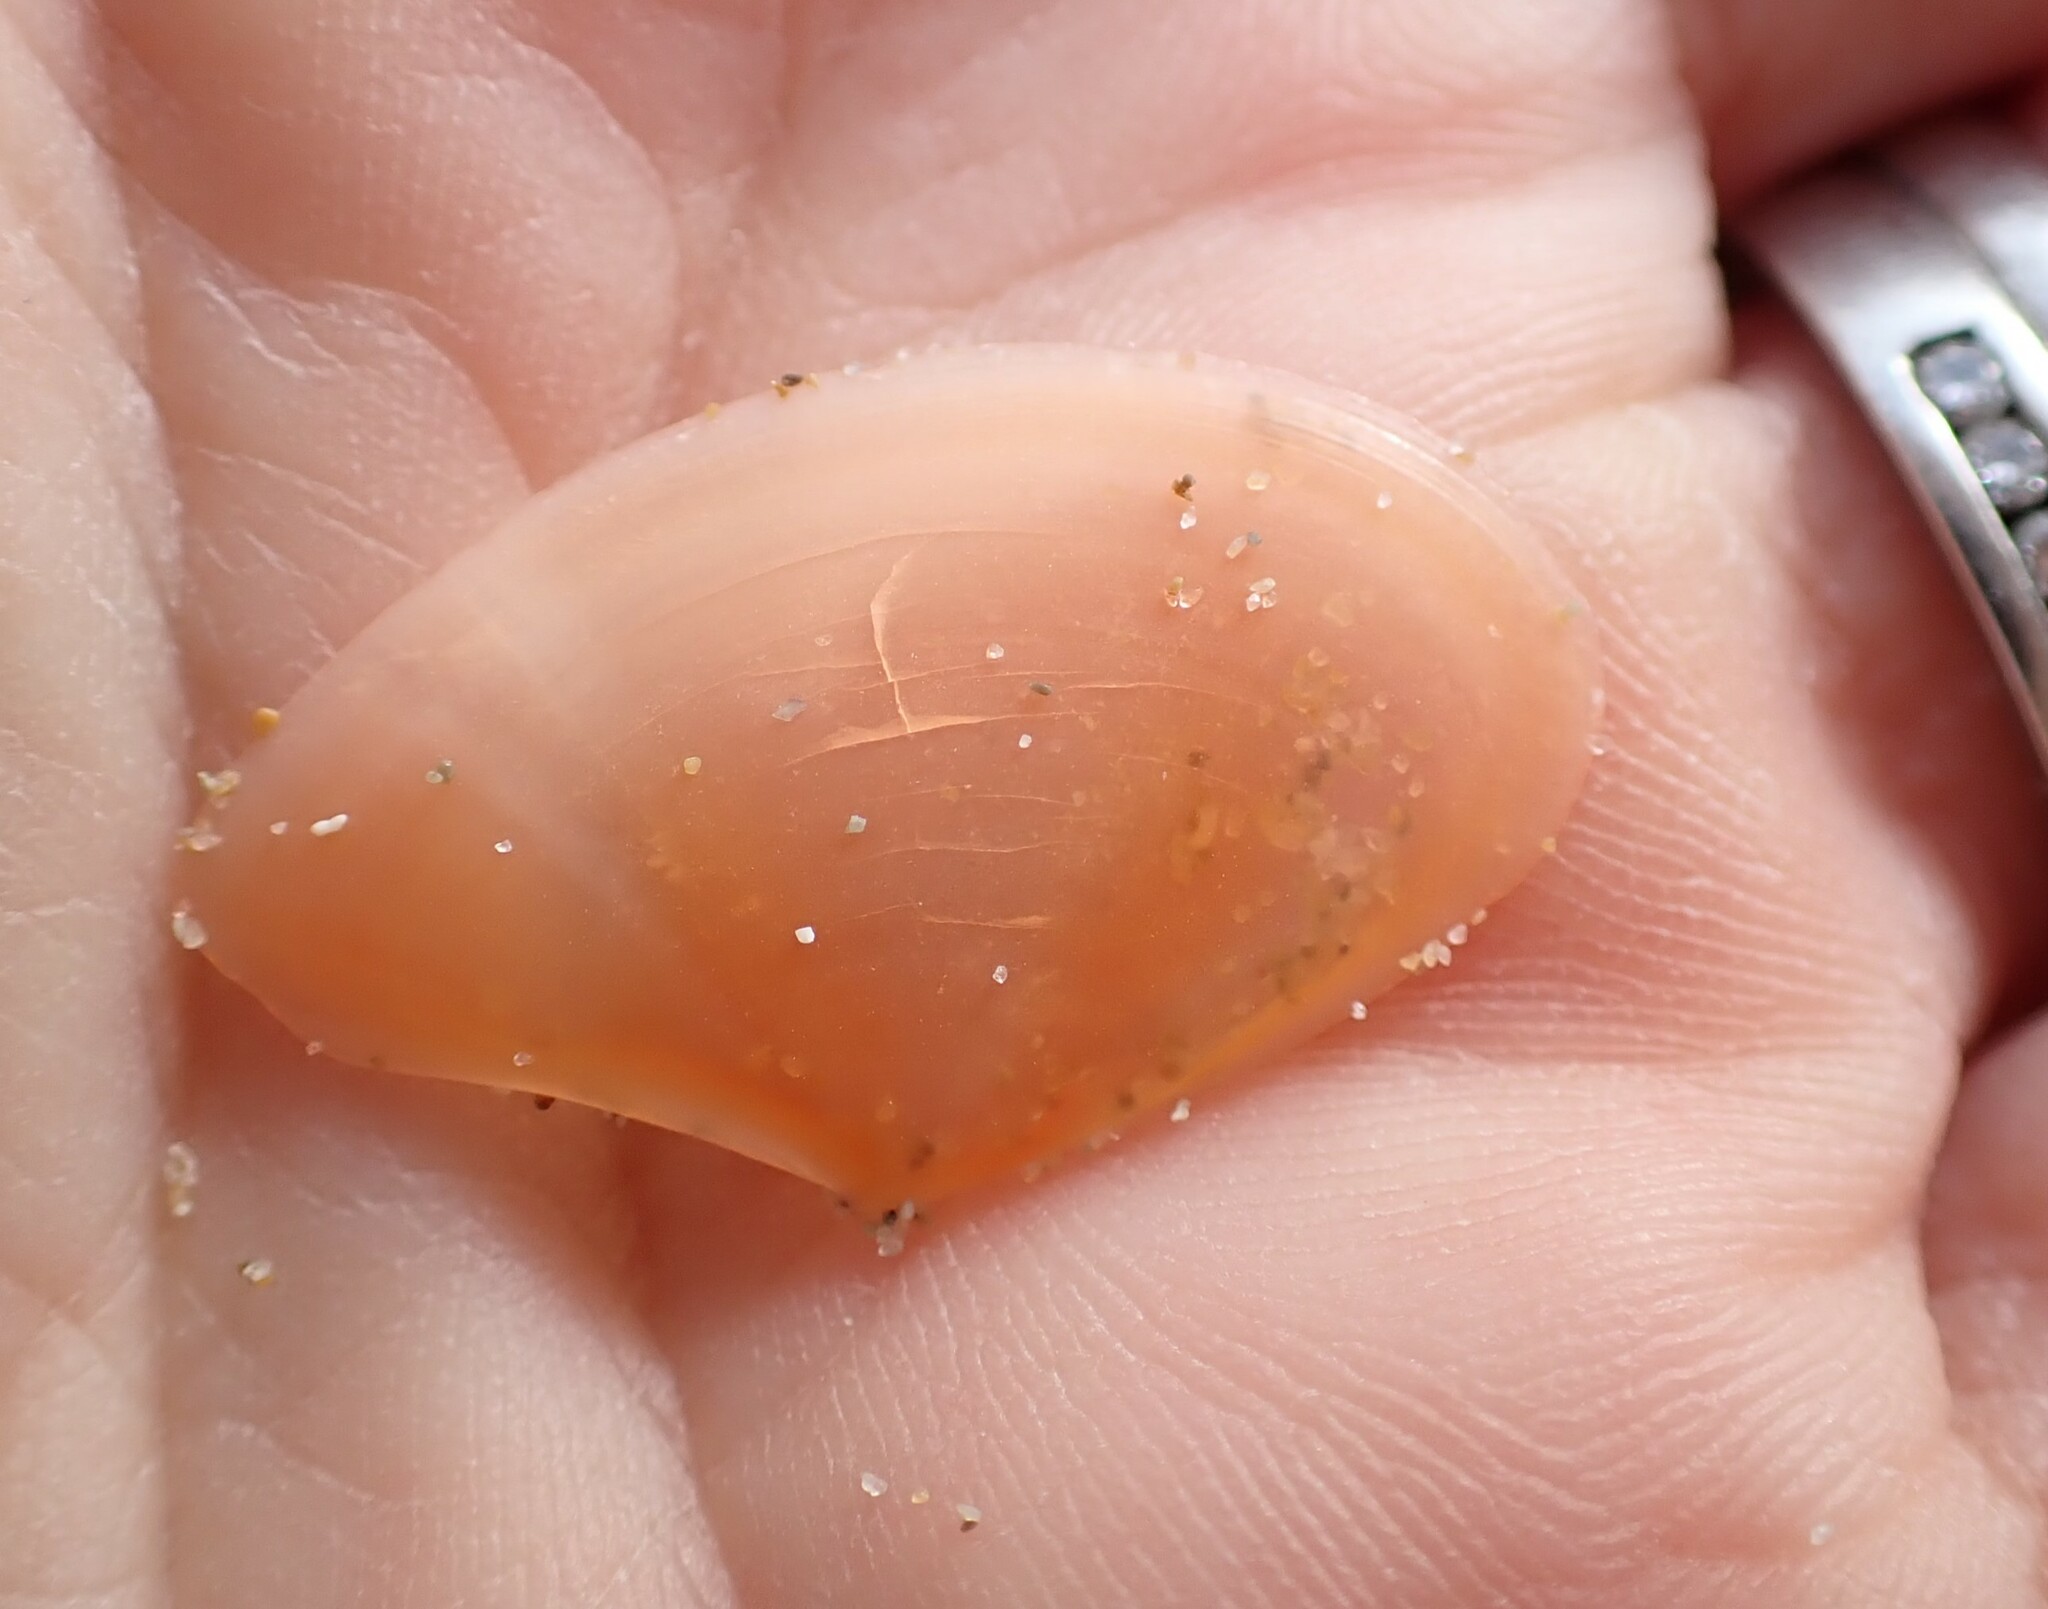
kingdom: Animalia
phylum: Mollusca
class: Bivalvia
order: Cardiida
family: Tellinidae
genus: Bosemprella
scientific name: Bosemprella incarnata
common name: Red tellin
